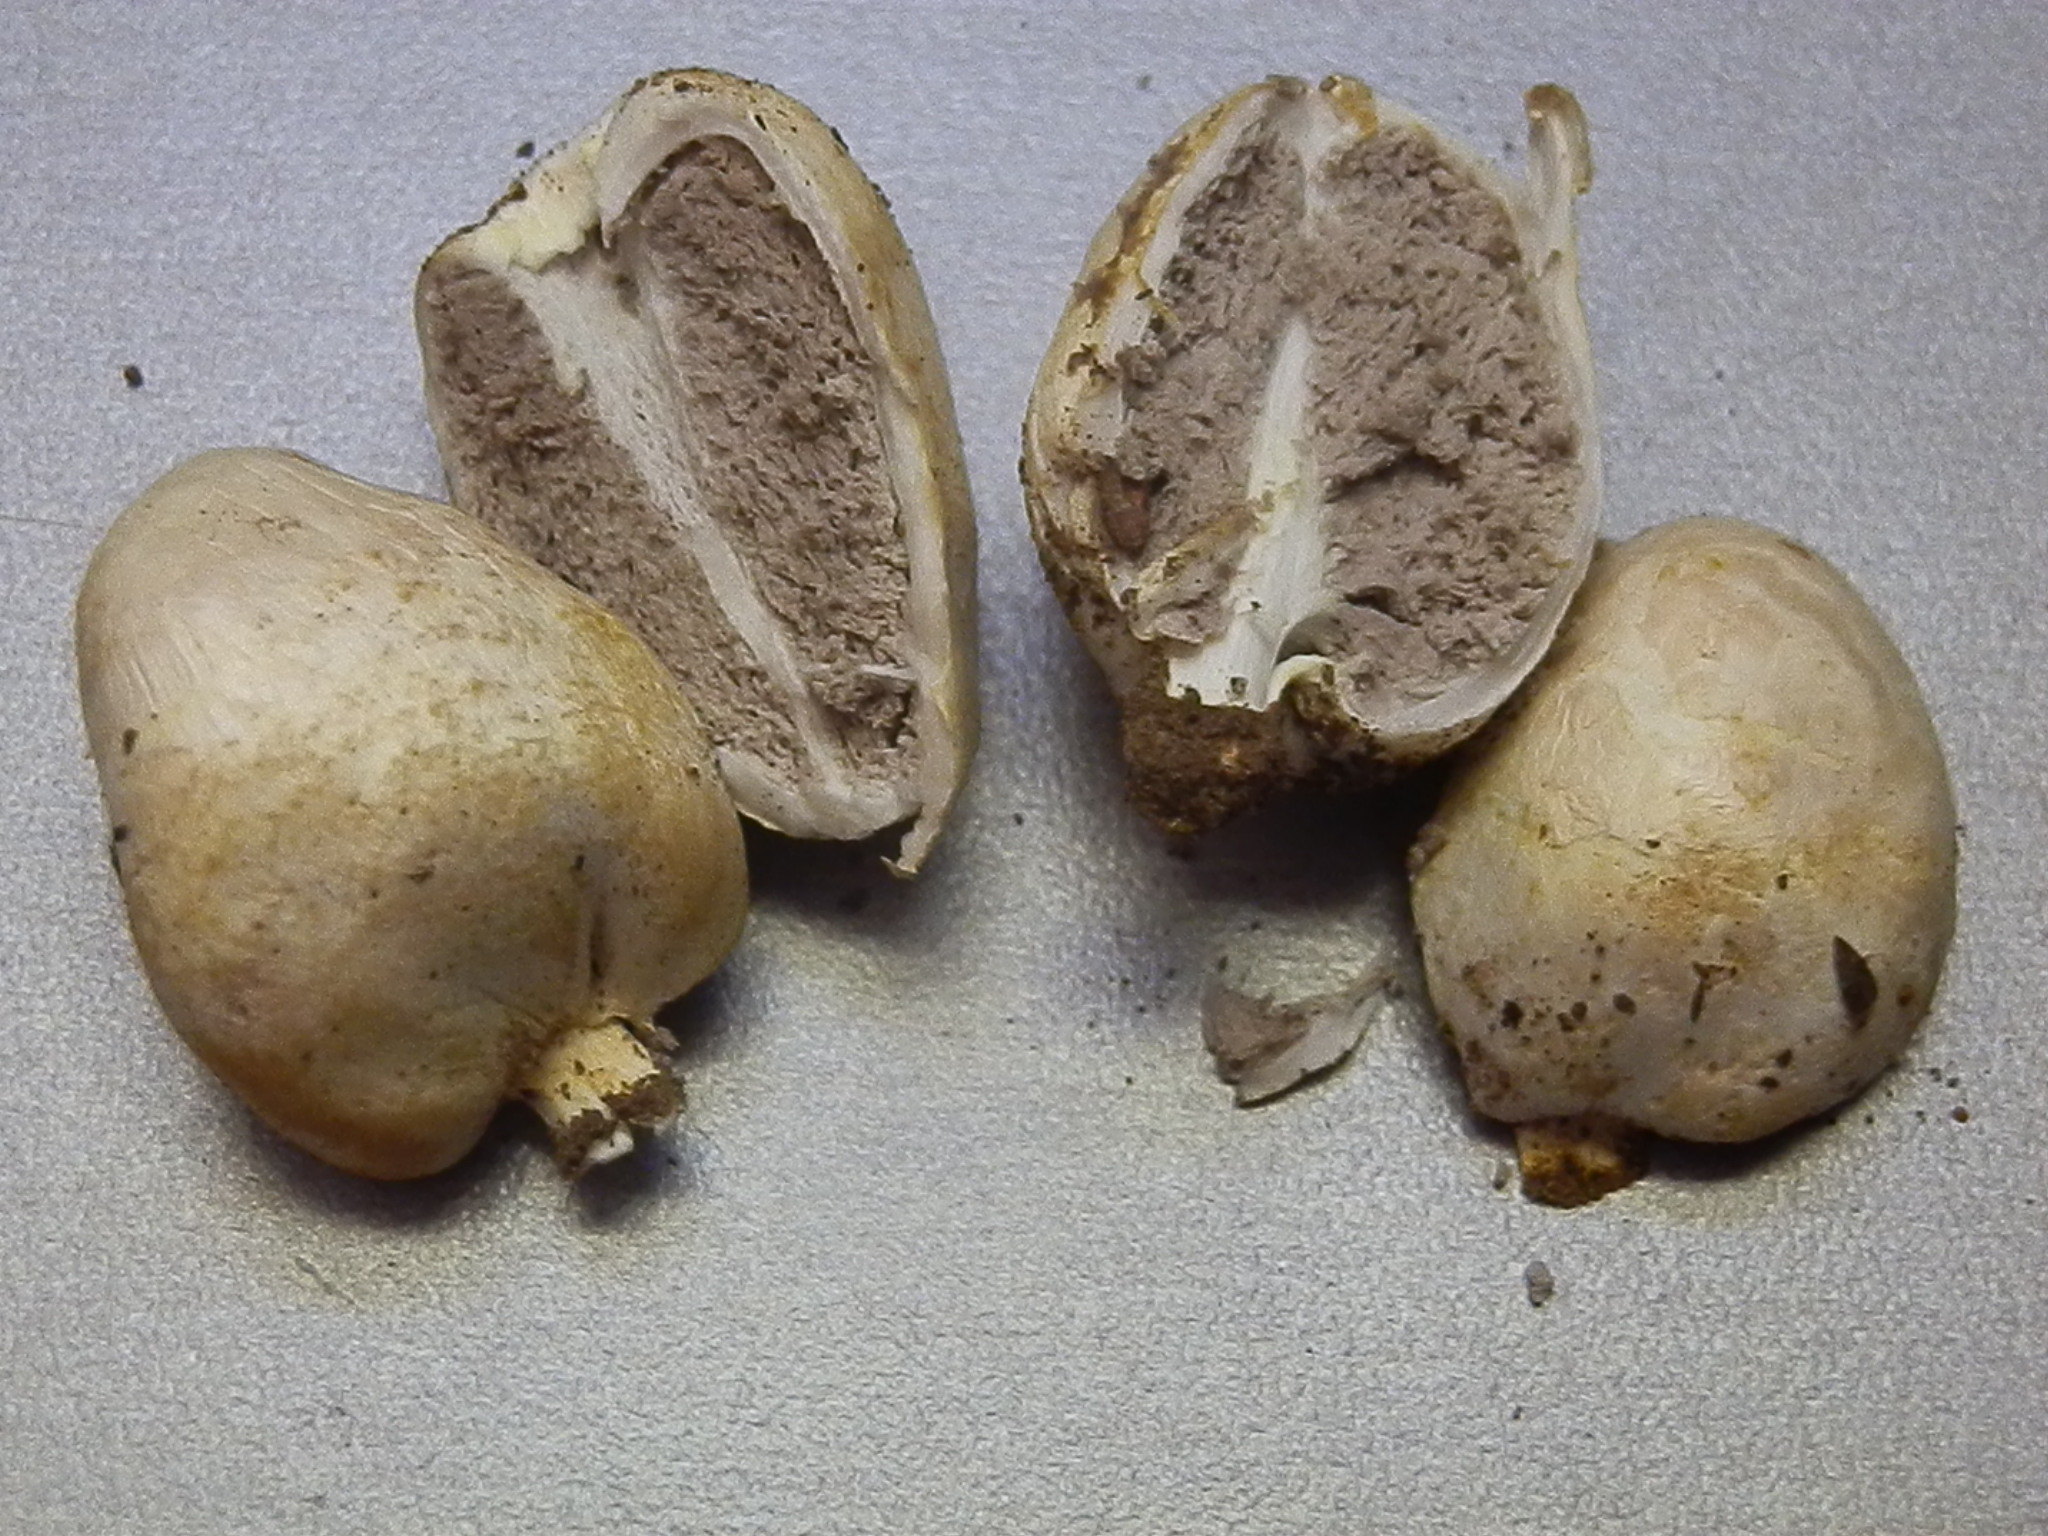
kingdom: Fungi
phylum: Basidiomycota
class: Agaricomycetes
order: Agaricales
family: Agaricaceae
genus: Agaricus
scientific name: Agaricus columellatus
